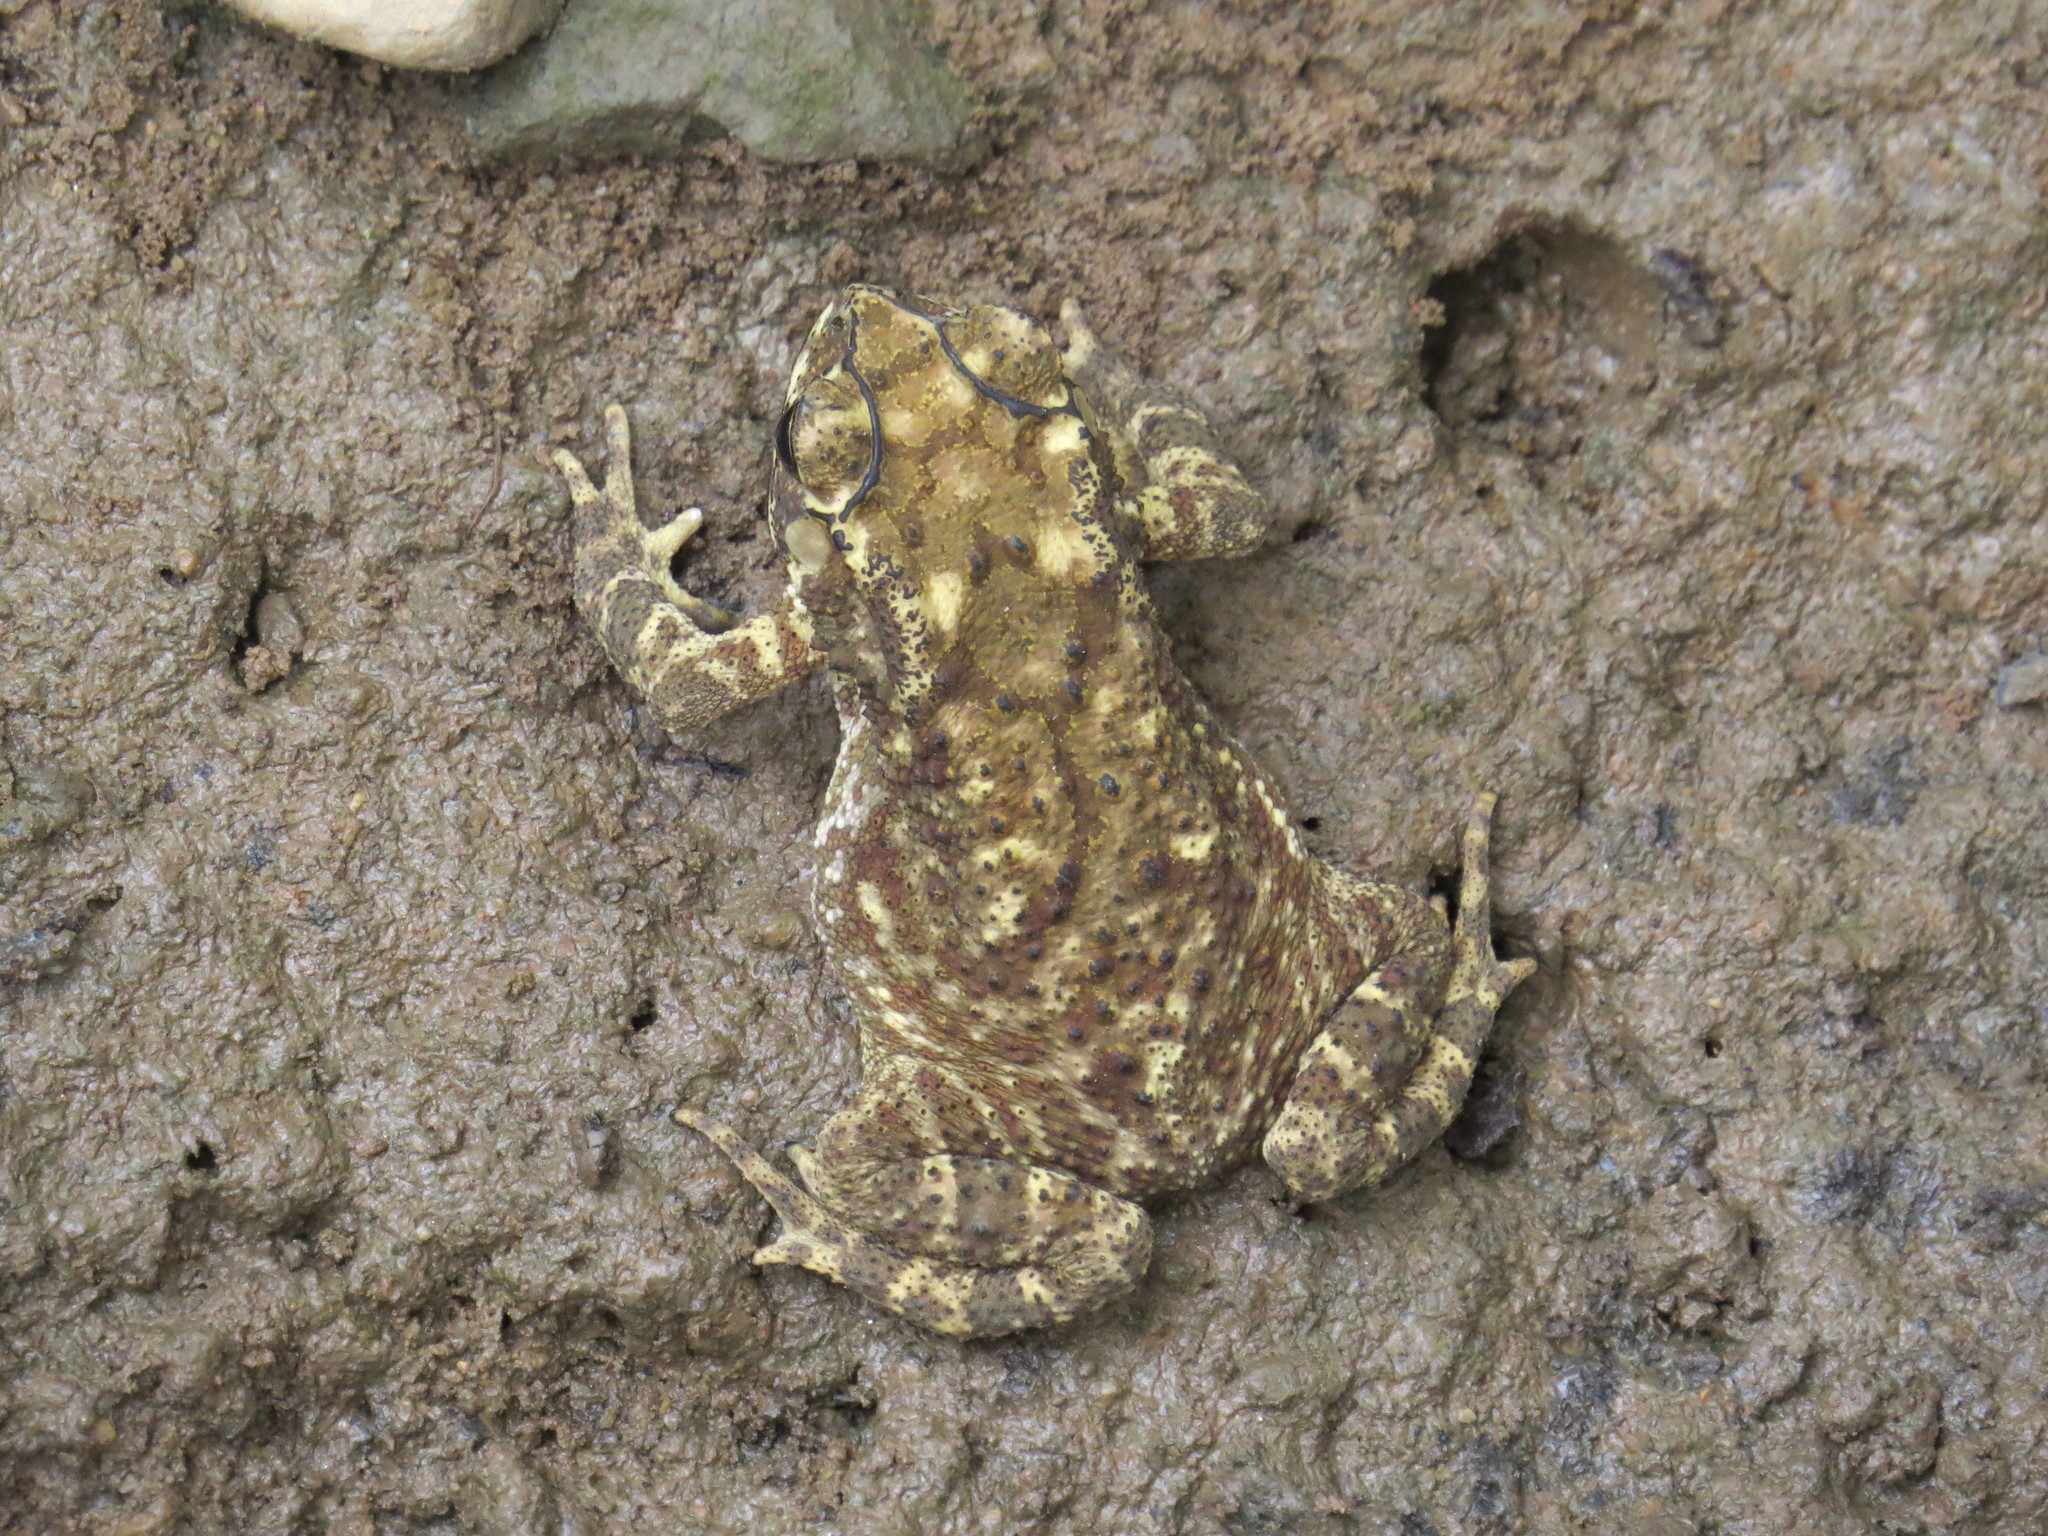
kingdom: Animalia
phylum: Chordata
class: Amphibia
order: Anura
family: Bufonidae
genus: Duttaphrynus
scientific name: Duttaphrynus melanostictus
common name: Common sunda toad
